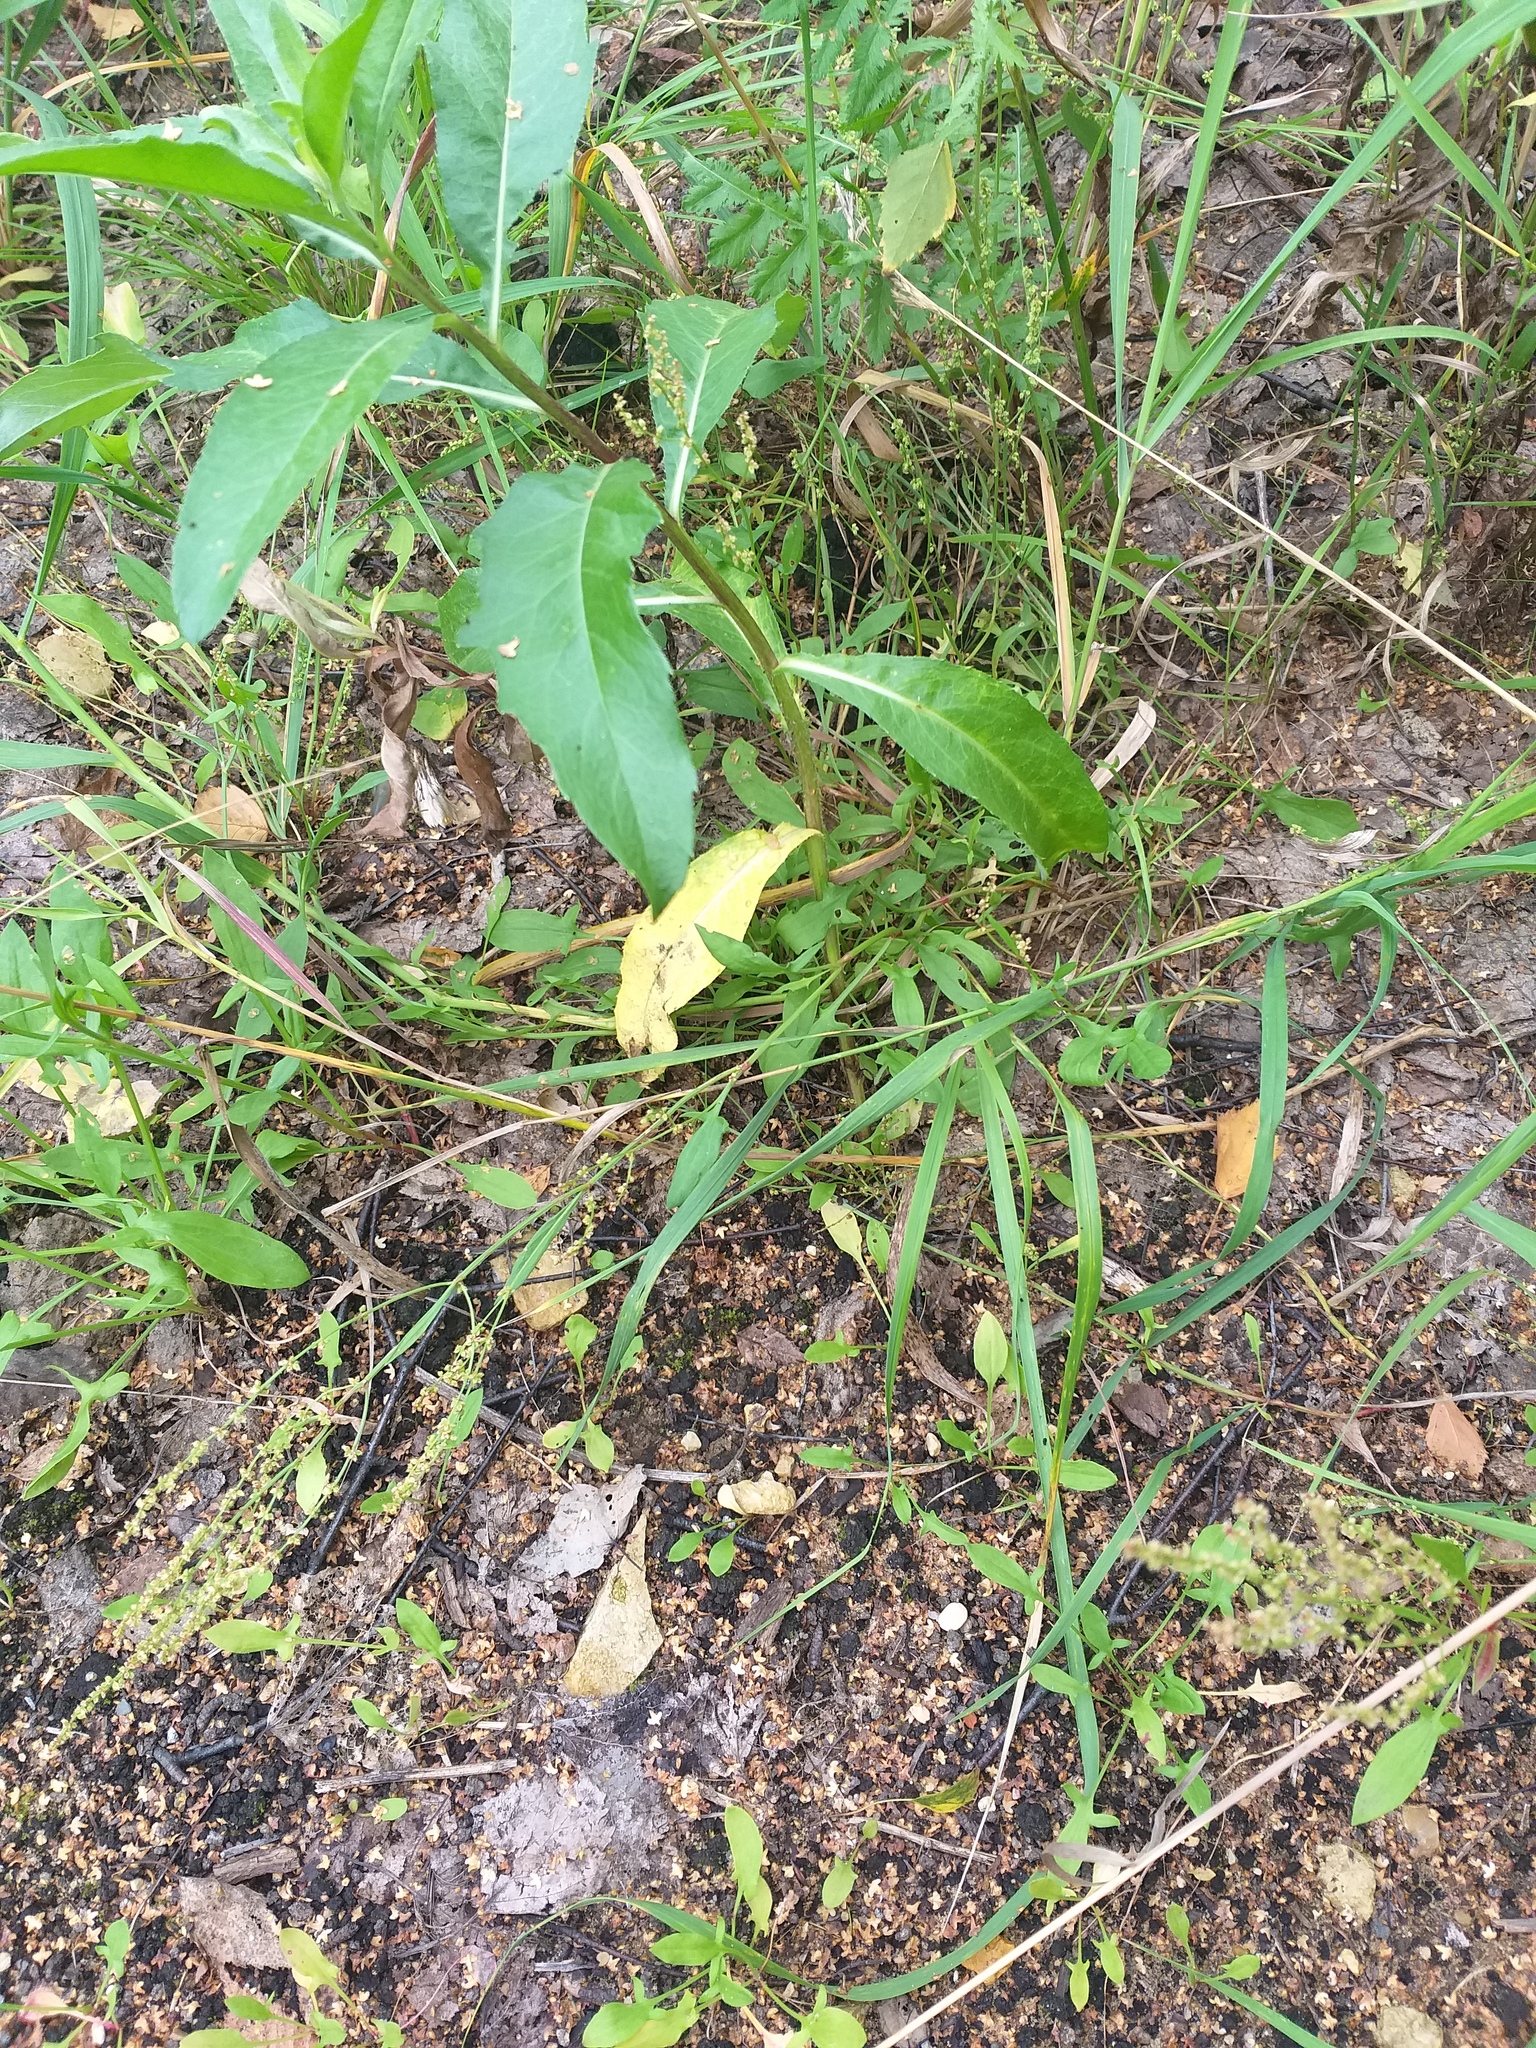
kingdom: Plantae
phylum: Tracheophyta
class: Magnoliopsida
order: Caryophyllales
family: Polygonaceae
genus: Rumex
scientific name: Rumex acetosella
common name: Common sheep sorrel
